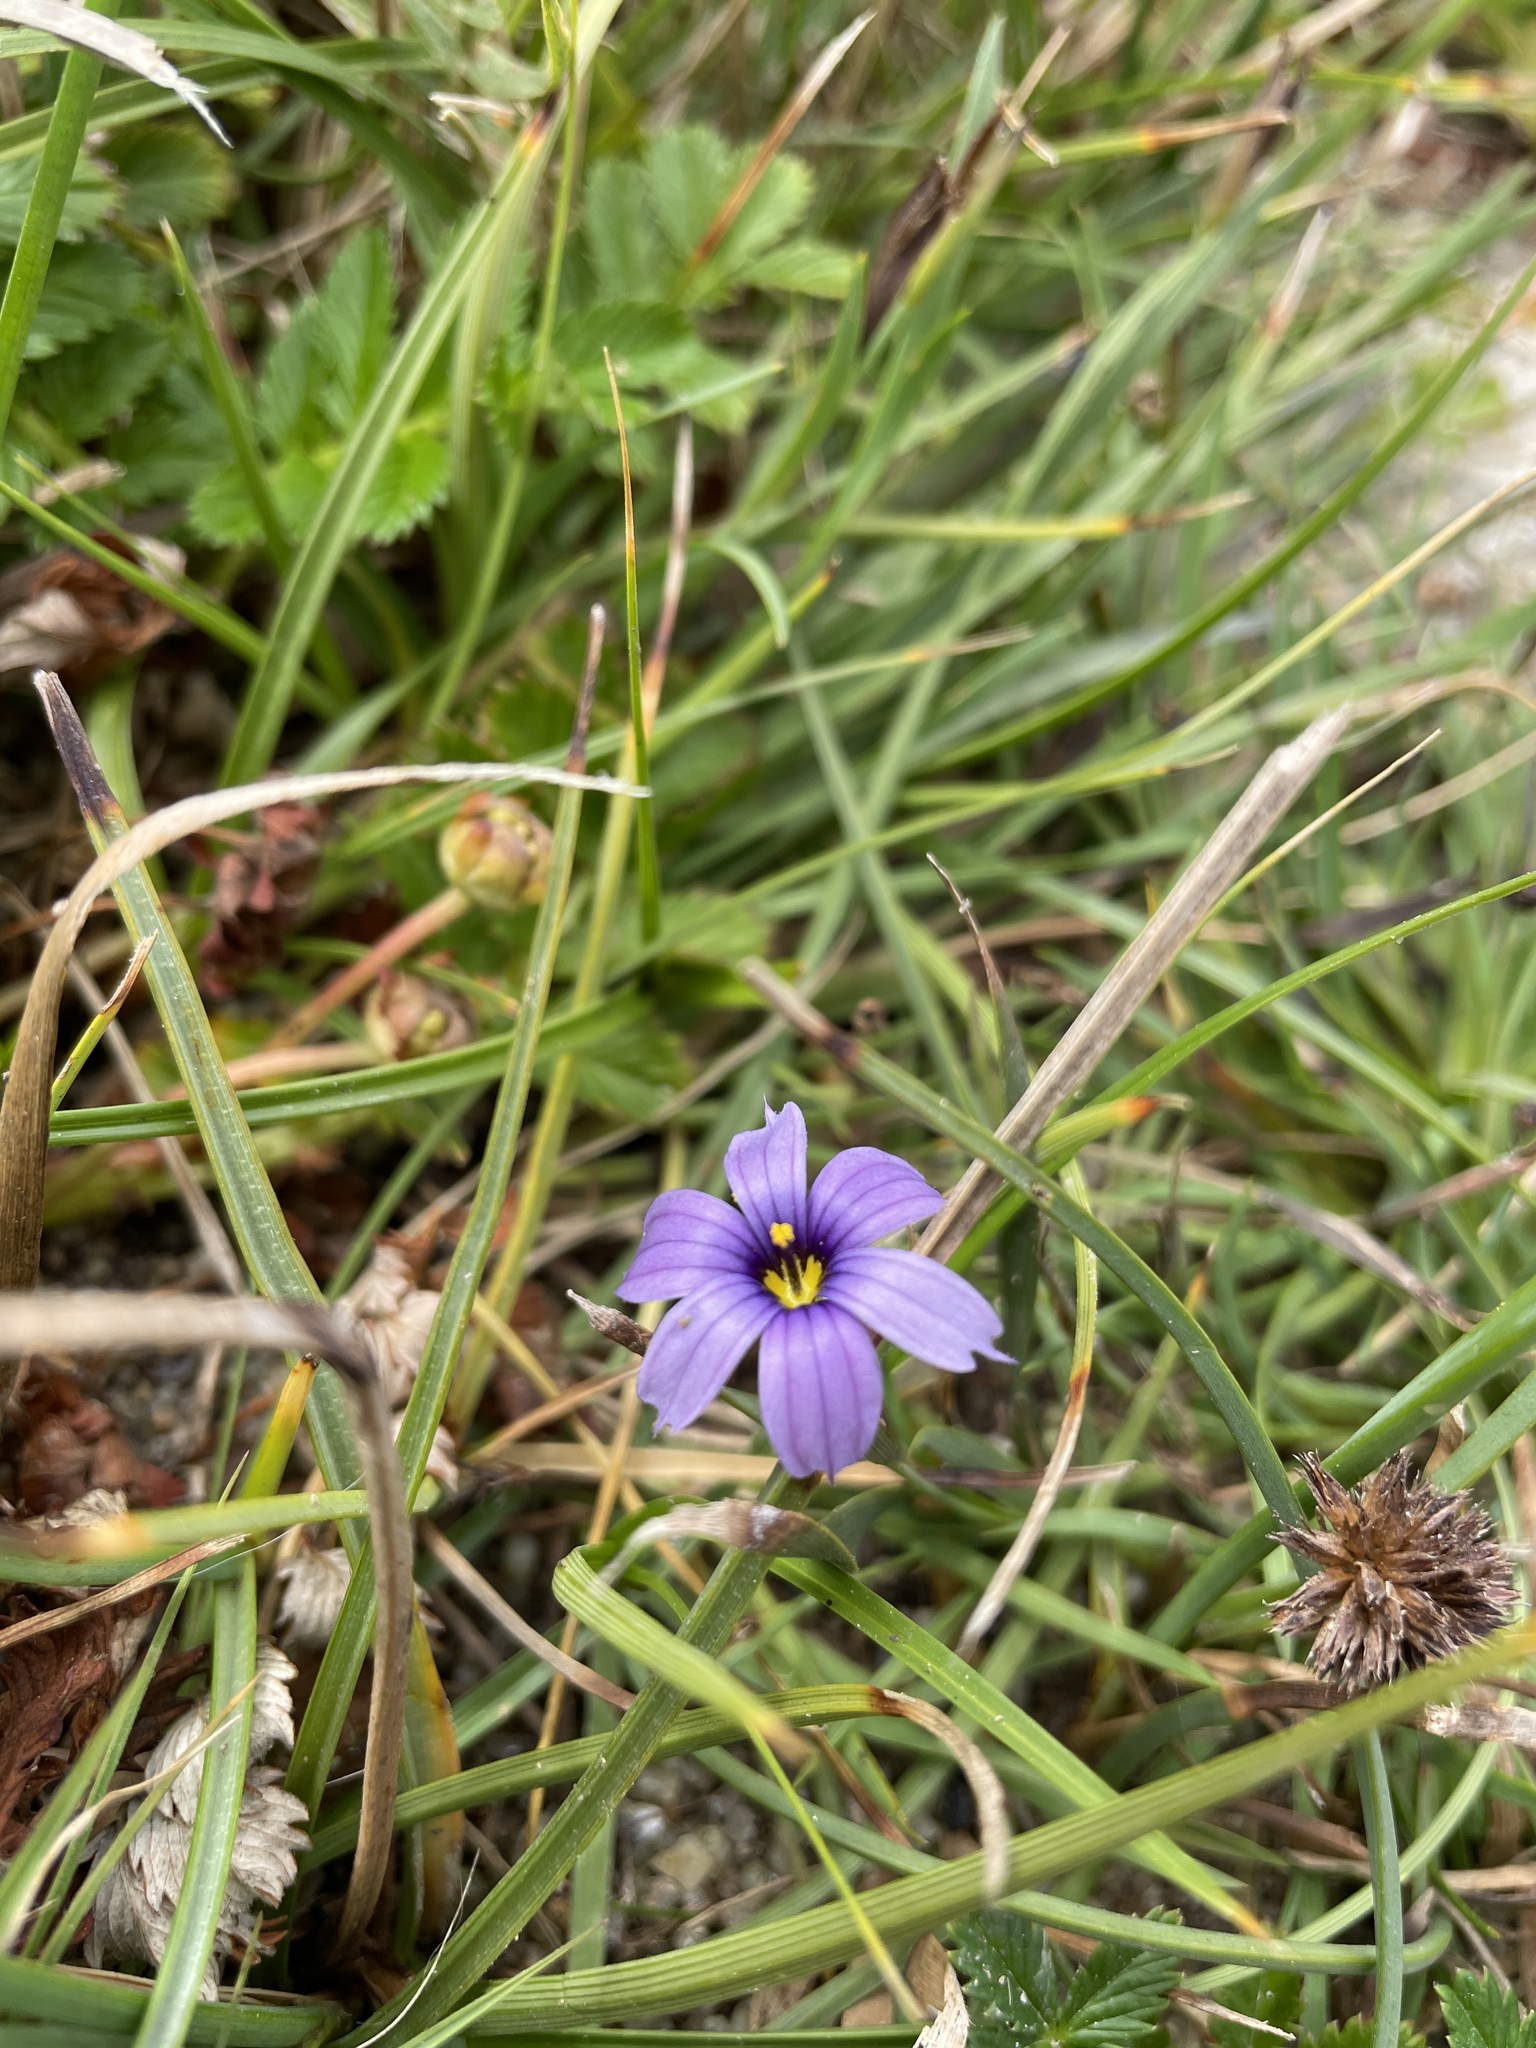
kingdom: Plantae
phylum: Tracheophyta
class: Liliopsida
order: Asparagales
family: Iridaceae
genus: Sisyrinchium
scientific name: Sisyrinchium bellum
